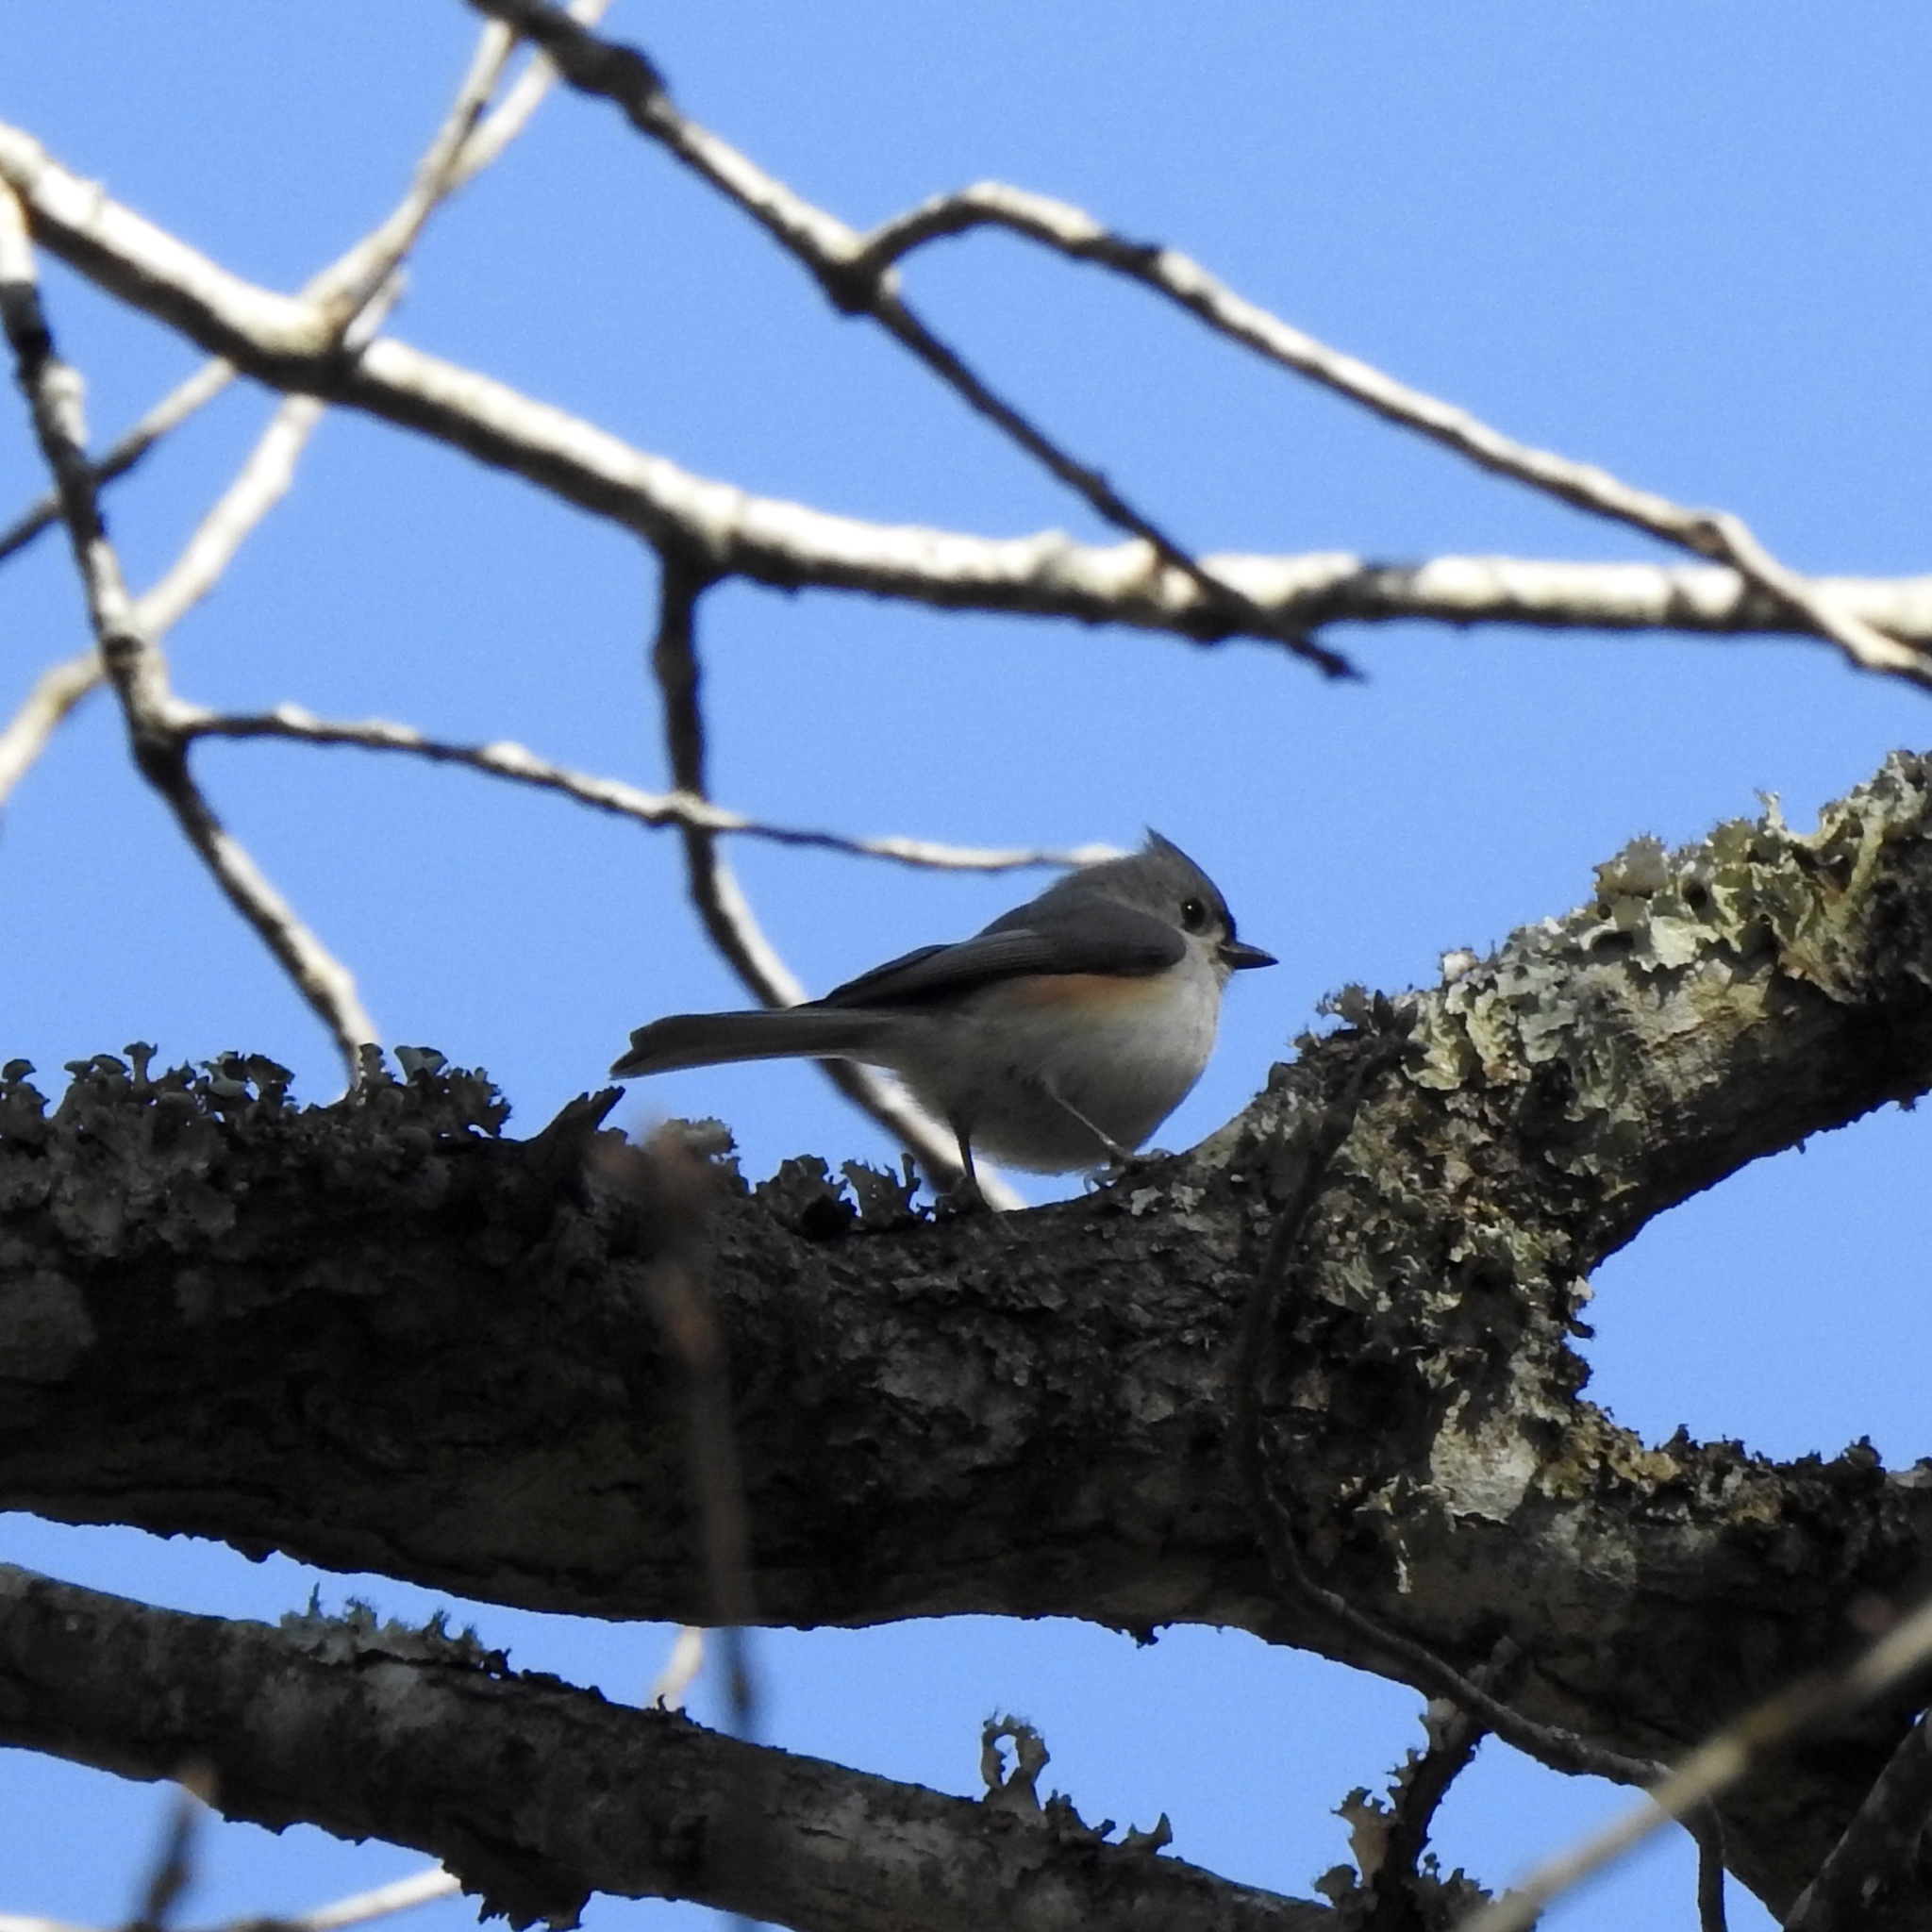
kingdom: Animalia
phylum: Chordata
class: Aves
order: Passeriformes
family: Paridae
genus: Baeolophus
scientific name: Baeolophus bicolor
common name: Tufted titmouse
